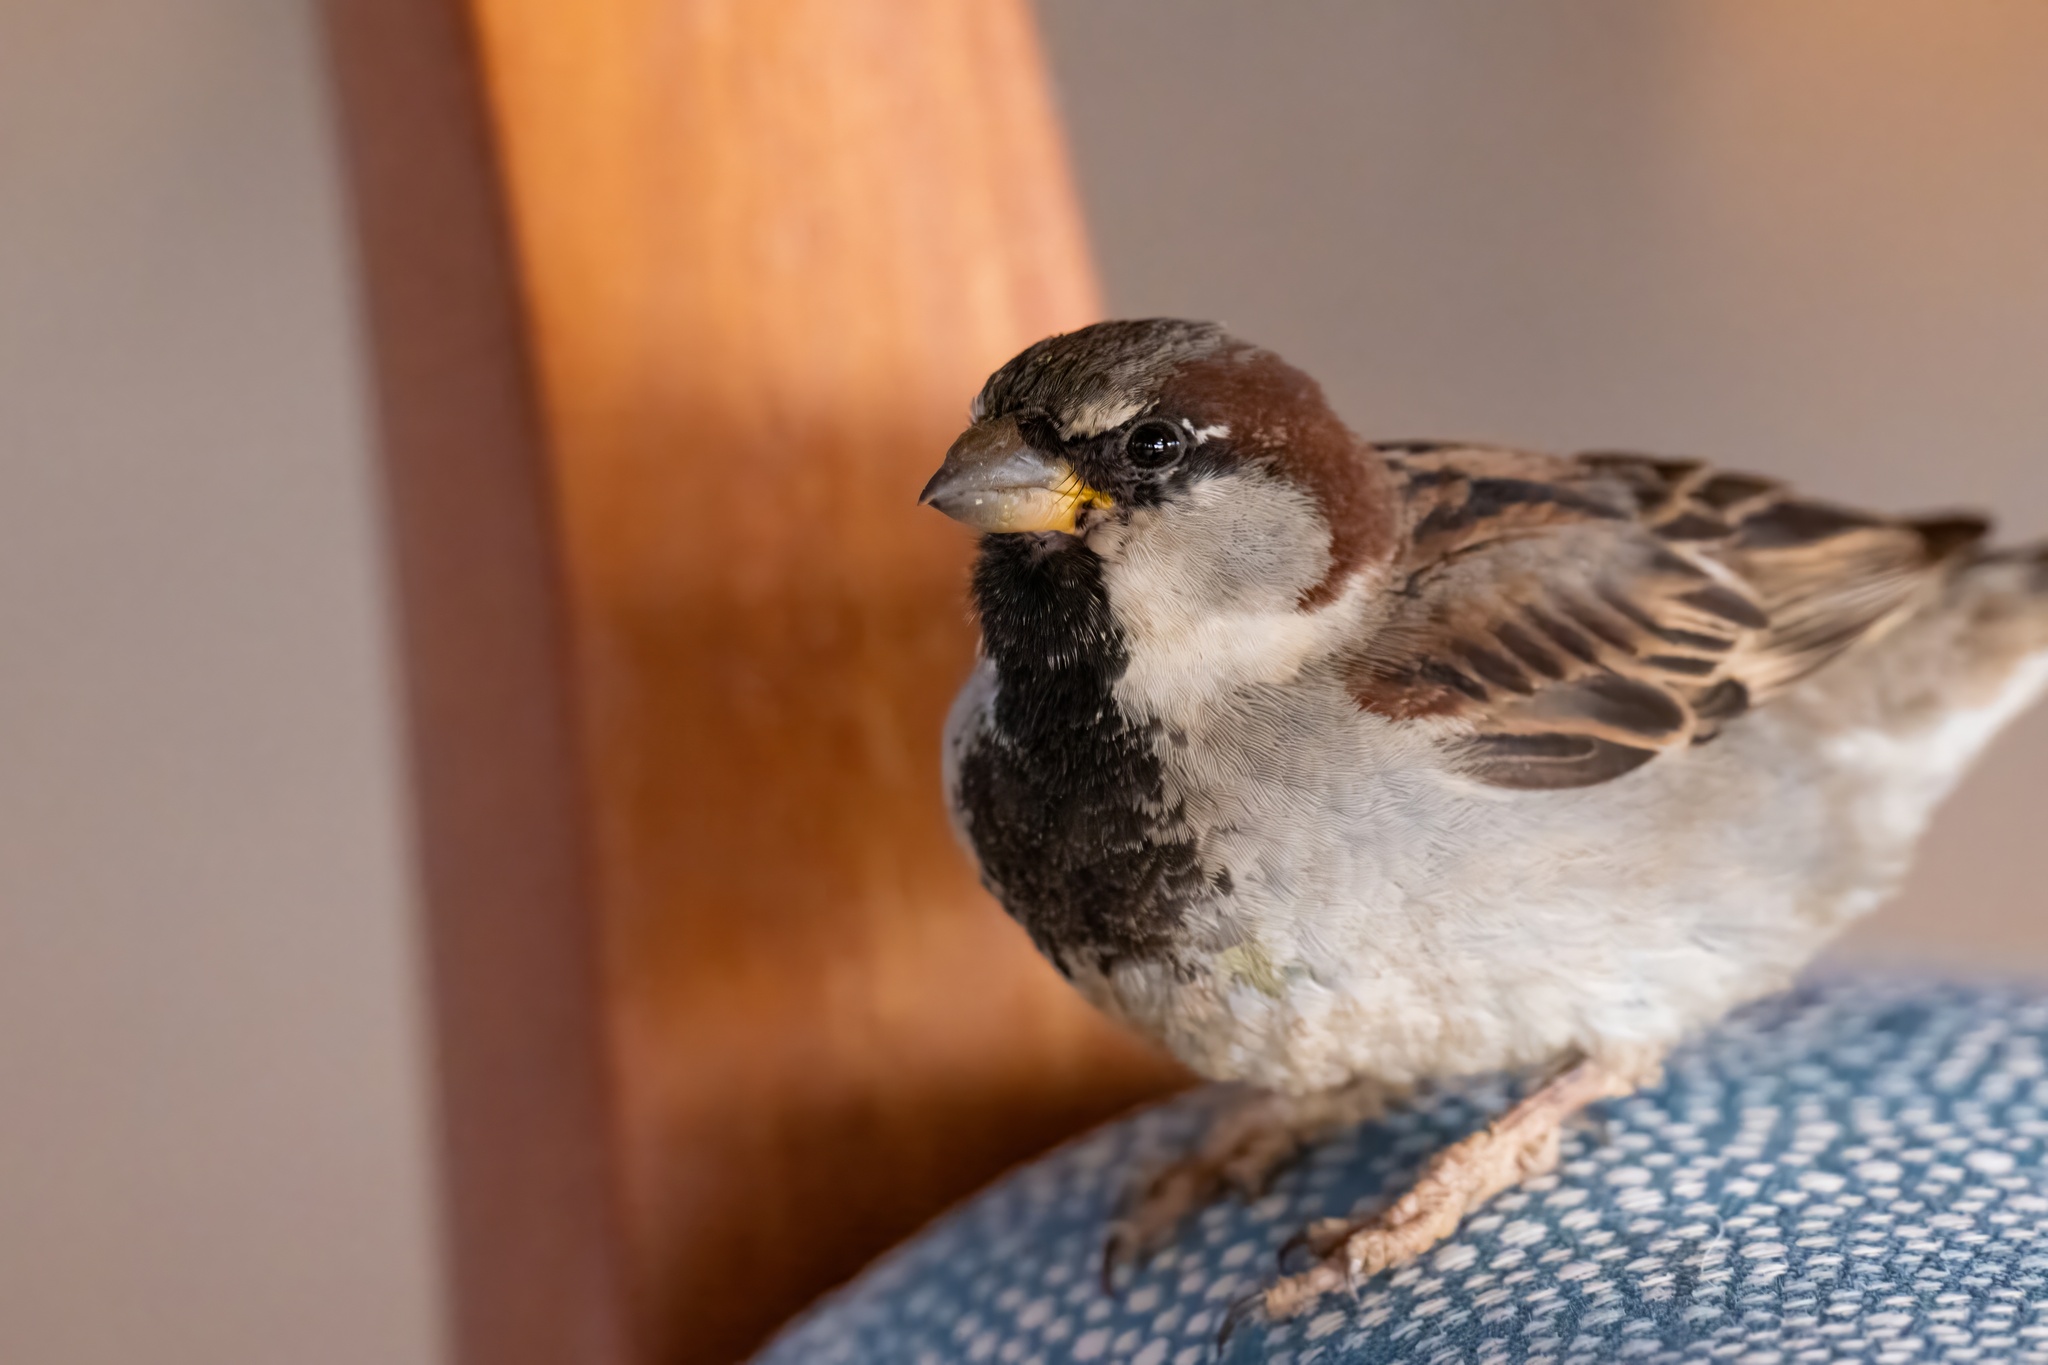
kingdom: Animalia
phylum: Chordata
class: Aves
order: Passeriformes
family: Passeridae
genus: Passer
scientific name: Passer domesticus
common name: House sparrow
